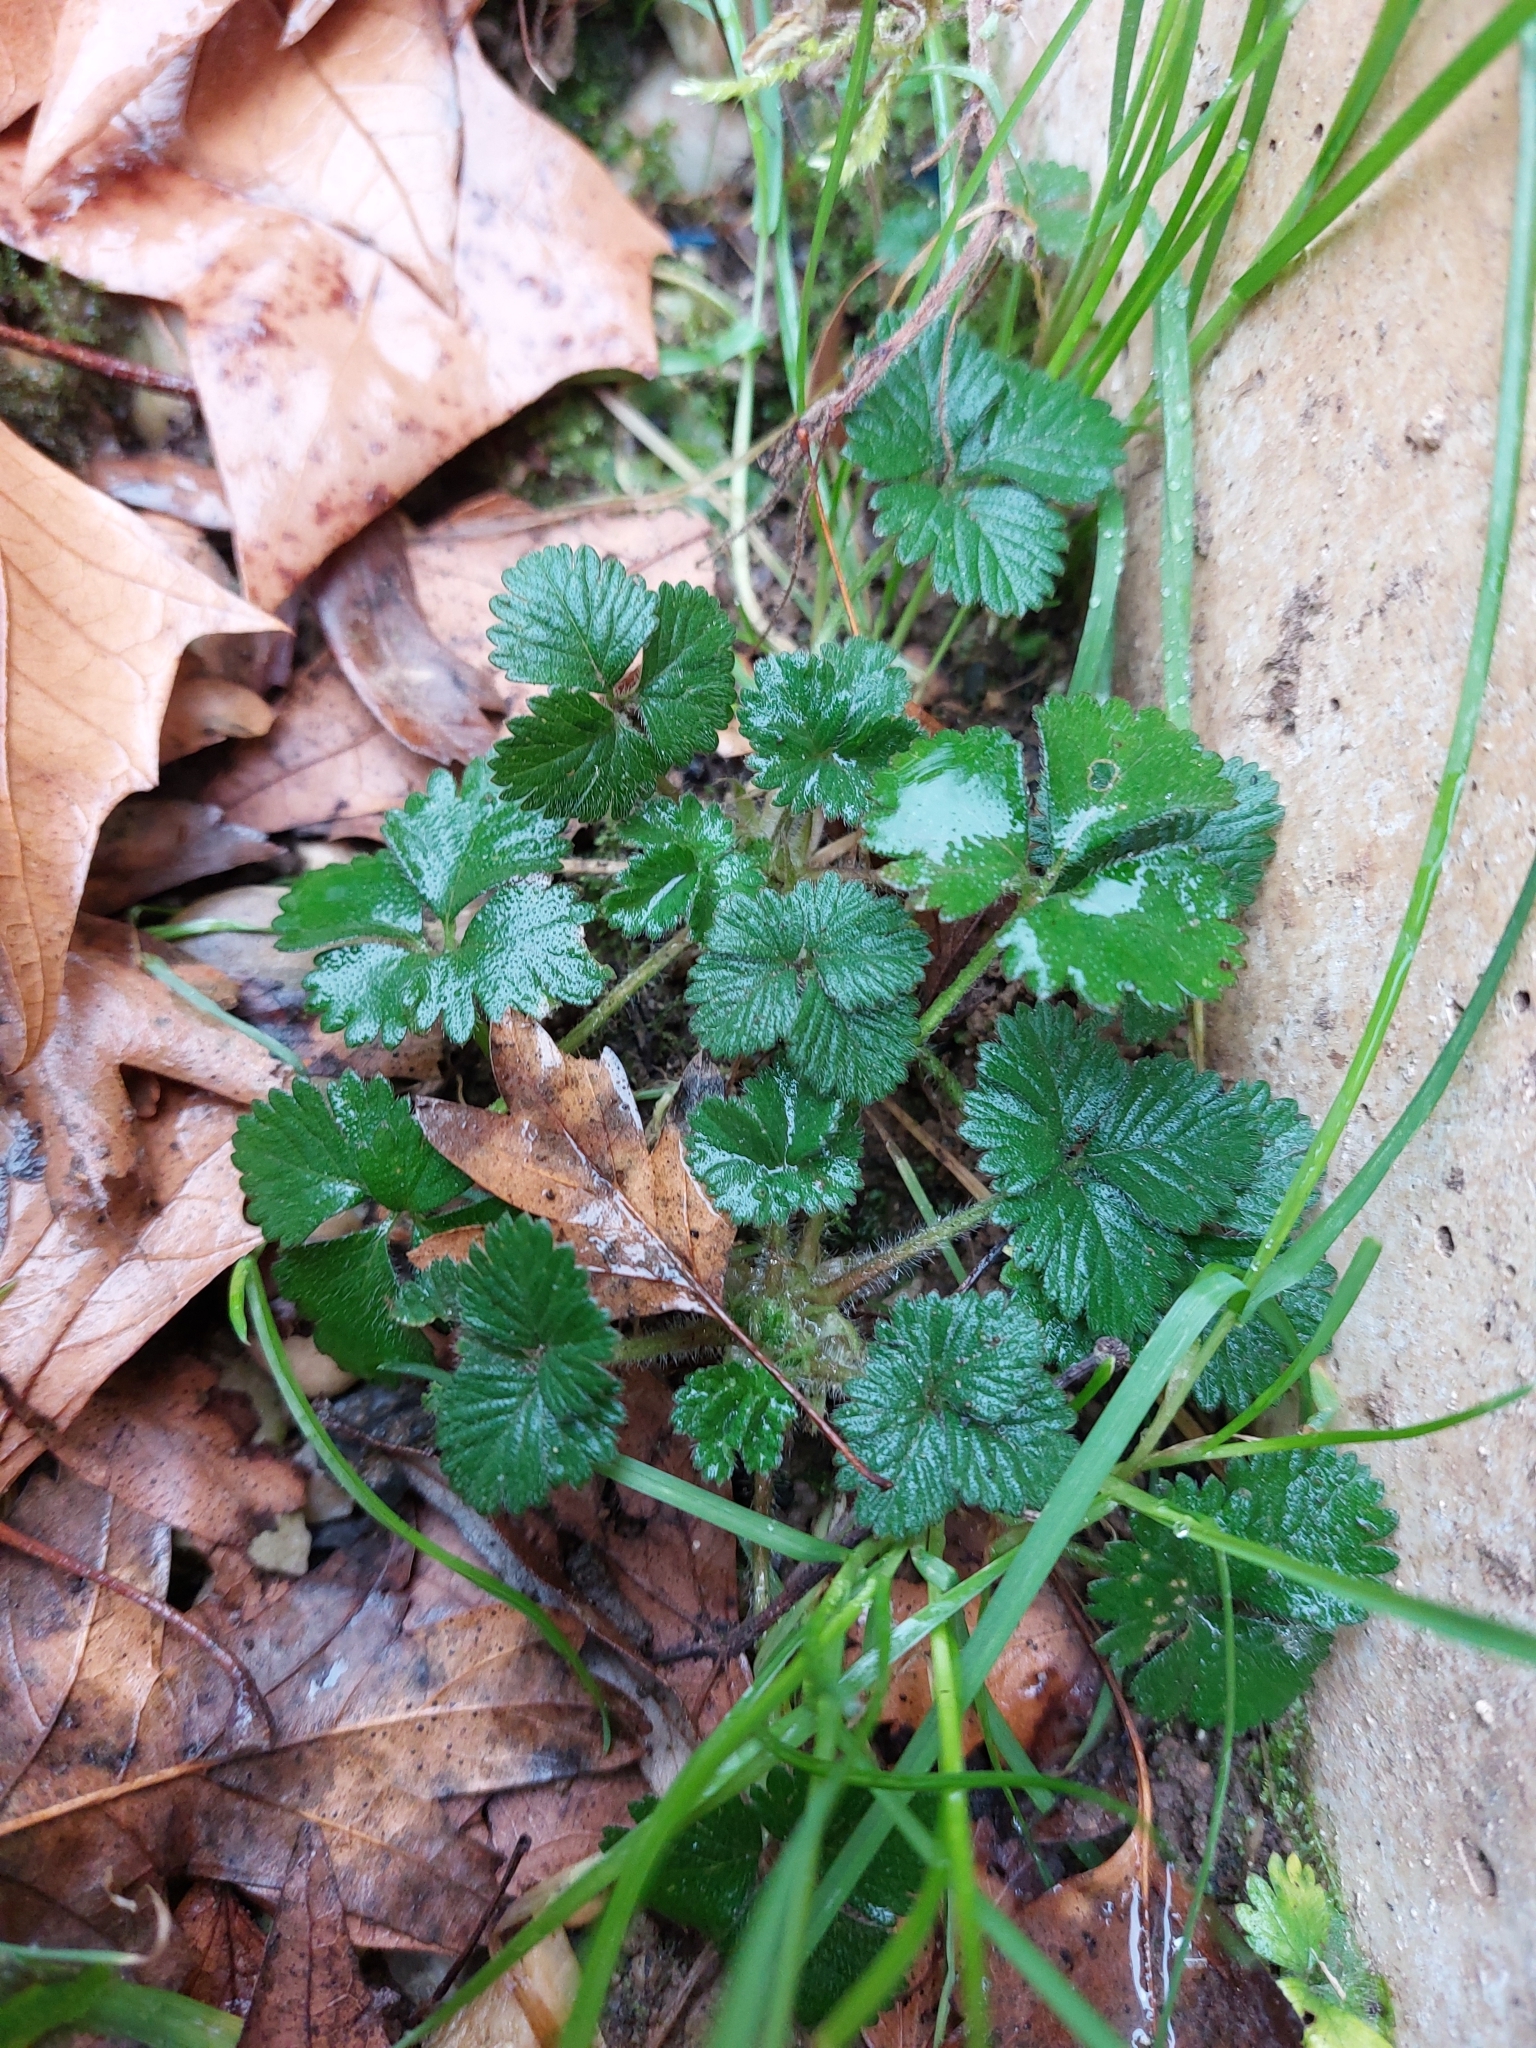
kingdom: Plantae
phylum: Tracheophyta
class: Magnoliopsida
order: Rosales
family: Rosaceae
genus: Potentilla
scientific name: Potentilla indica
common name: Yellow-flowered strawberry
